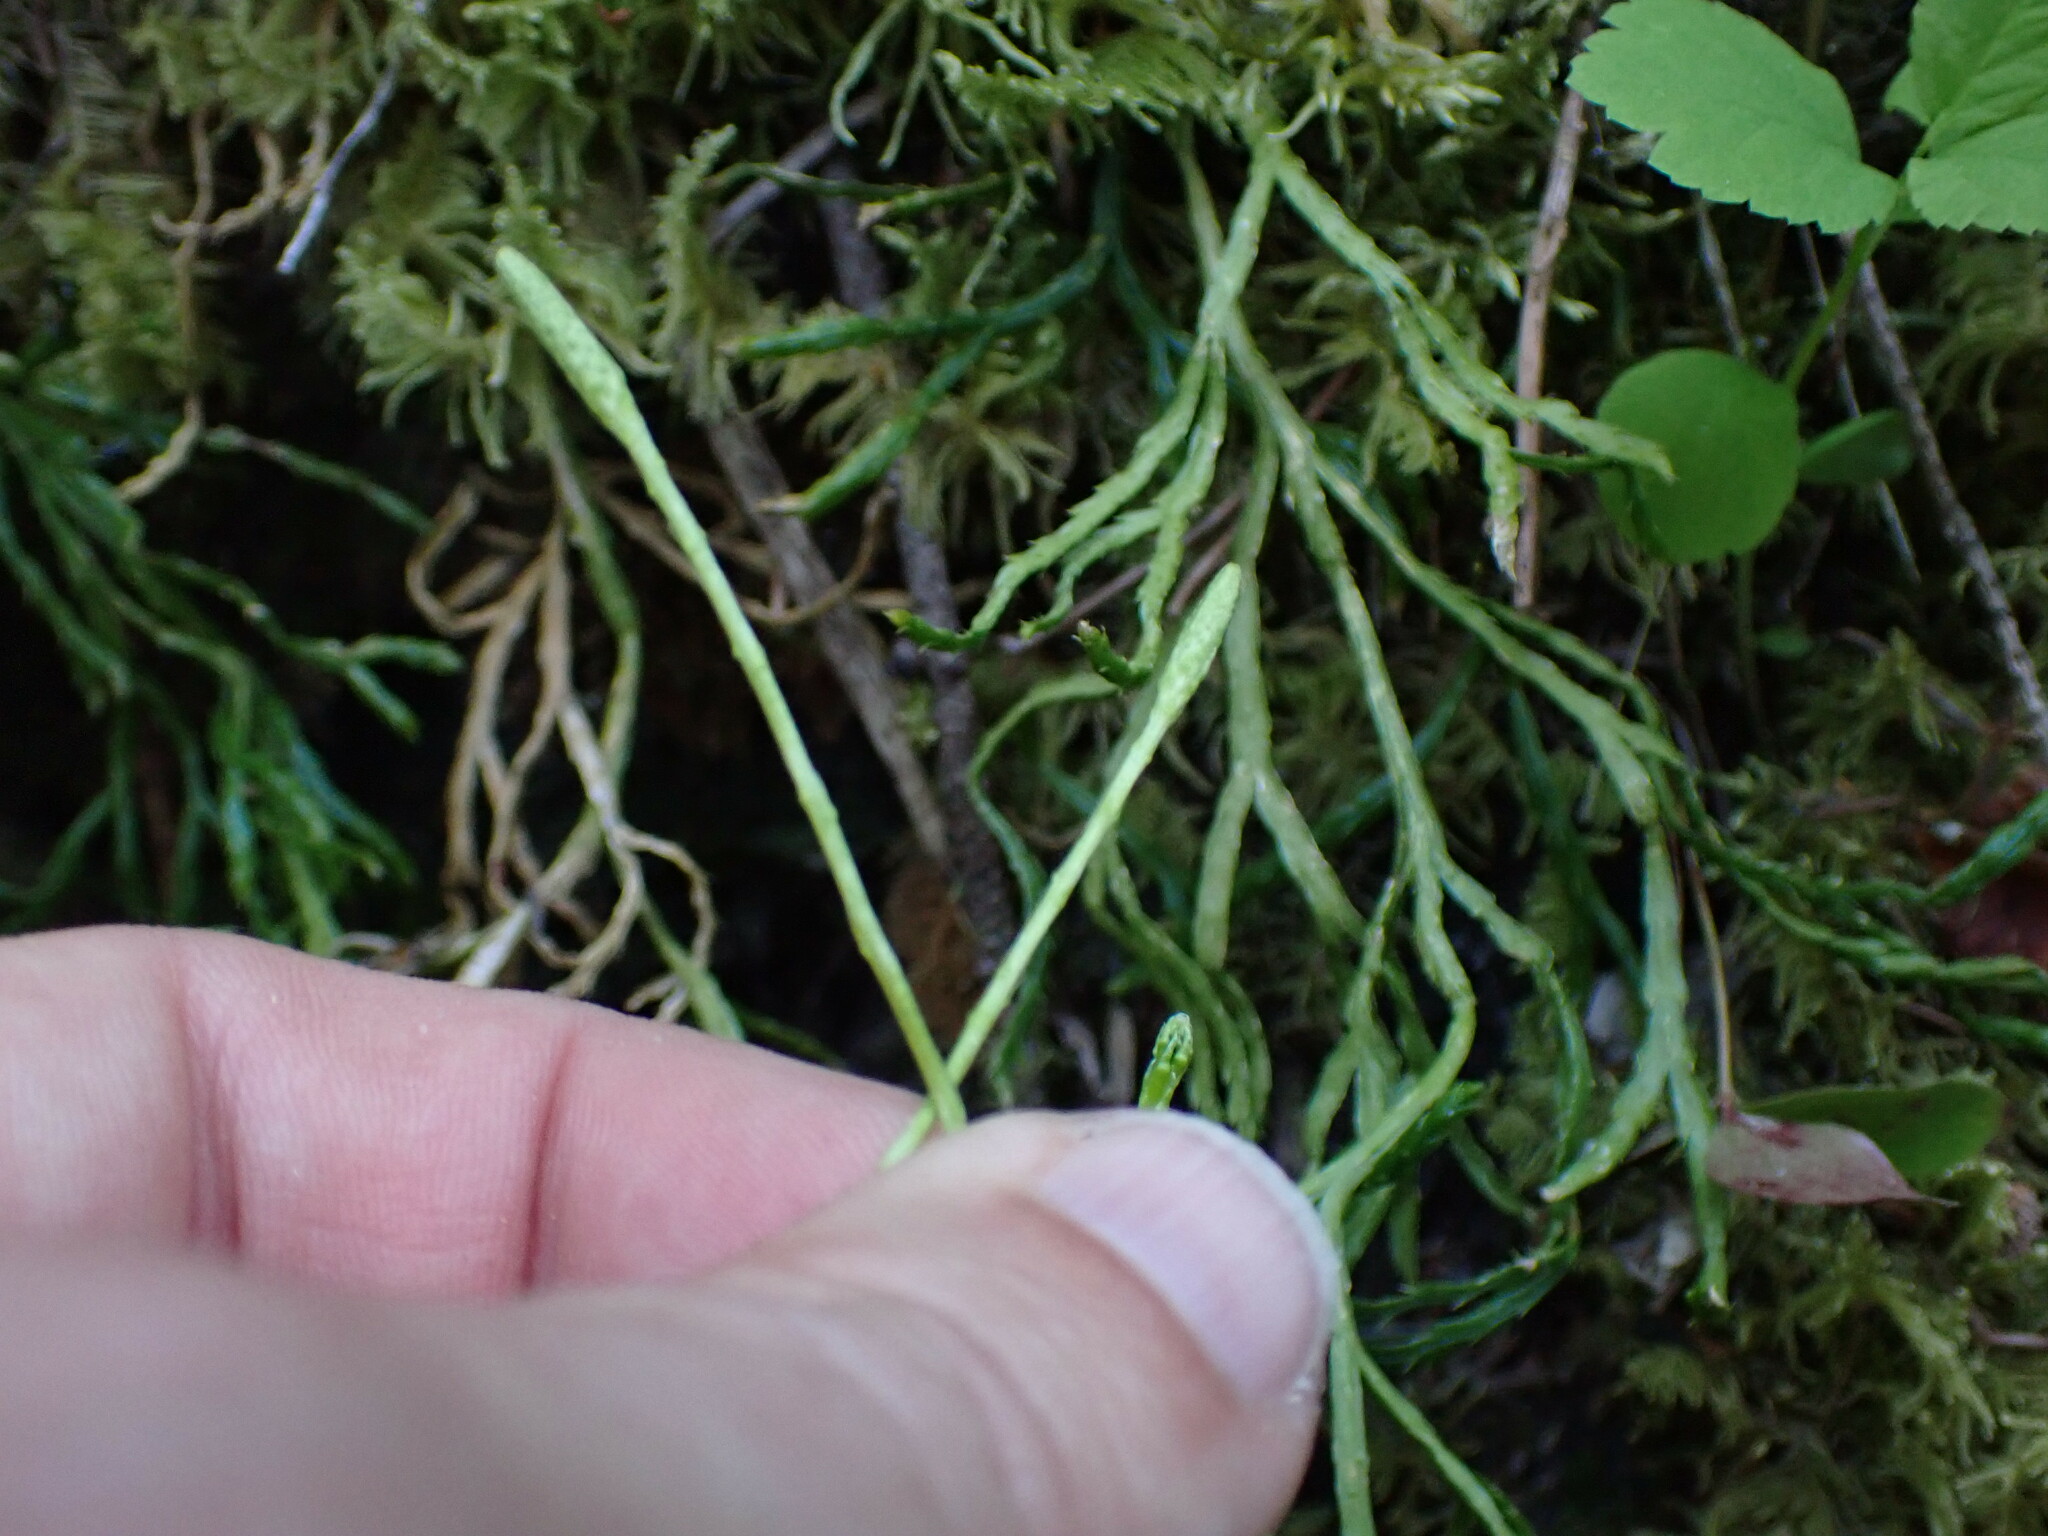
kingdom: Plantae
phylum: Tracheophyta
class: Lycopodiopsida
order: Lycopodiales
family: Lycopodiaceae
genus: Diphasiastrum
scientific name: Diphasiastrum complanatum
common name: Northern running-pine
